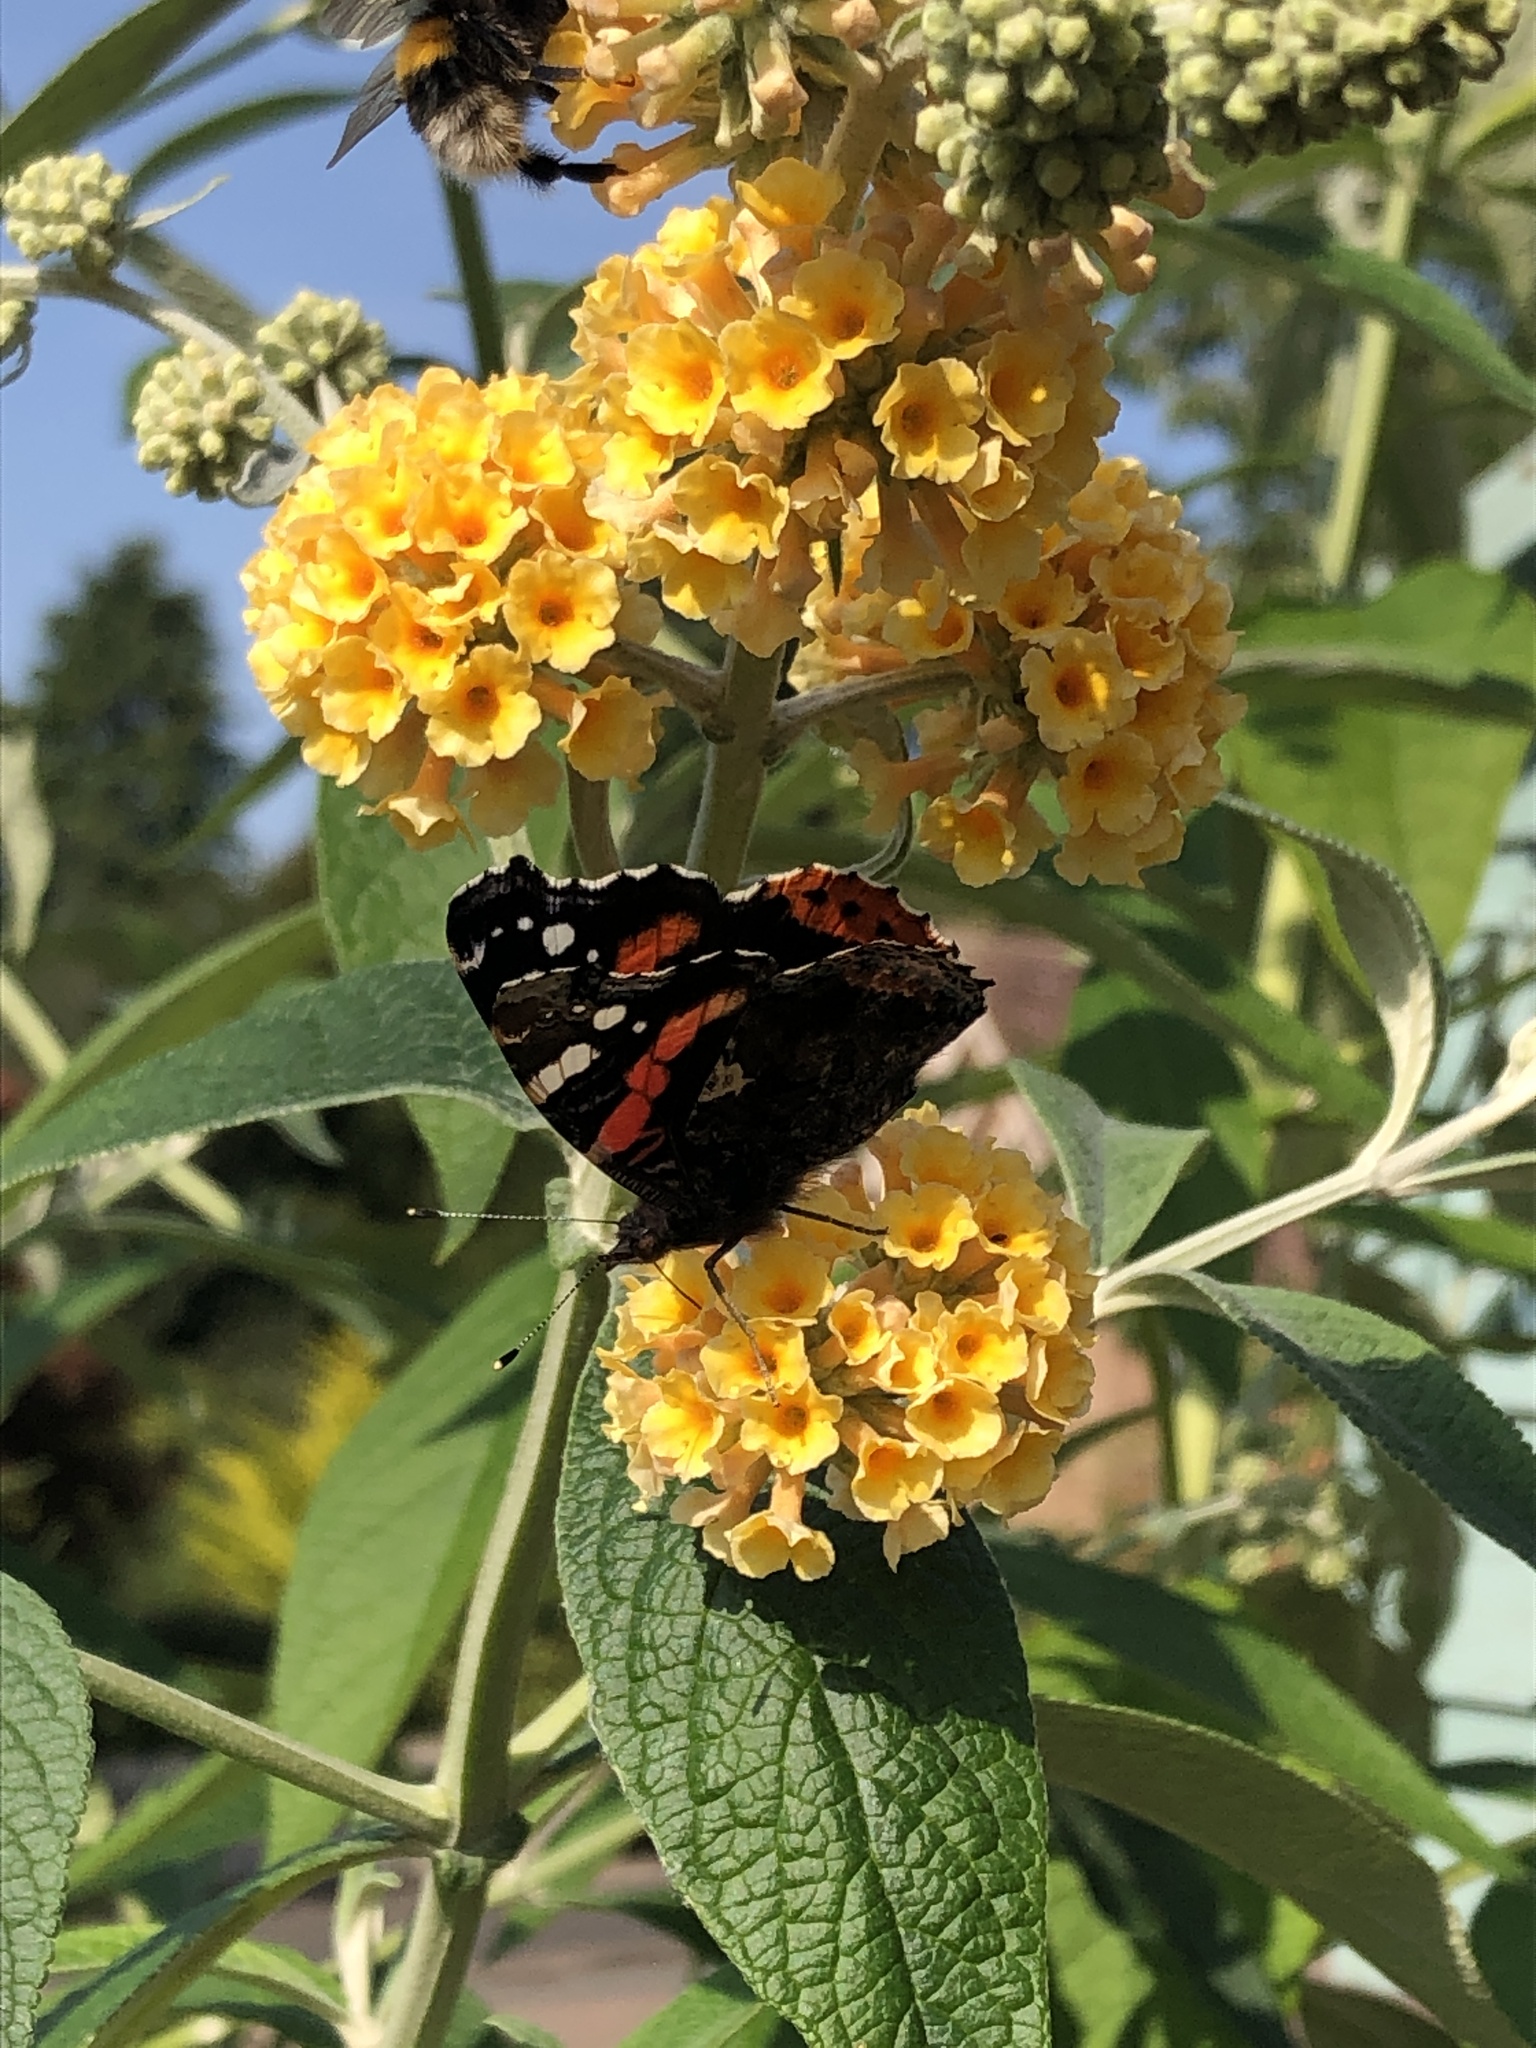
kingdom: Animalia
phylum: Arthropoda
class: Insecta
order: Lepidoptera
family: Nymphalidae
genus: Vanessa
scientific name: Vanessa atalanta
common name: Red admiral
